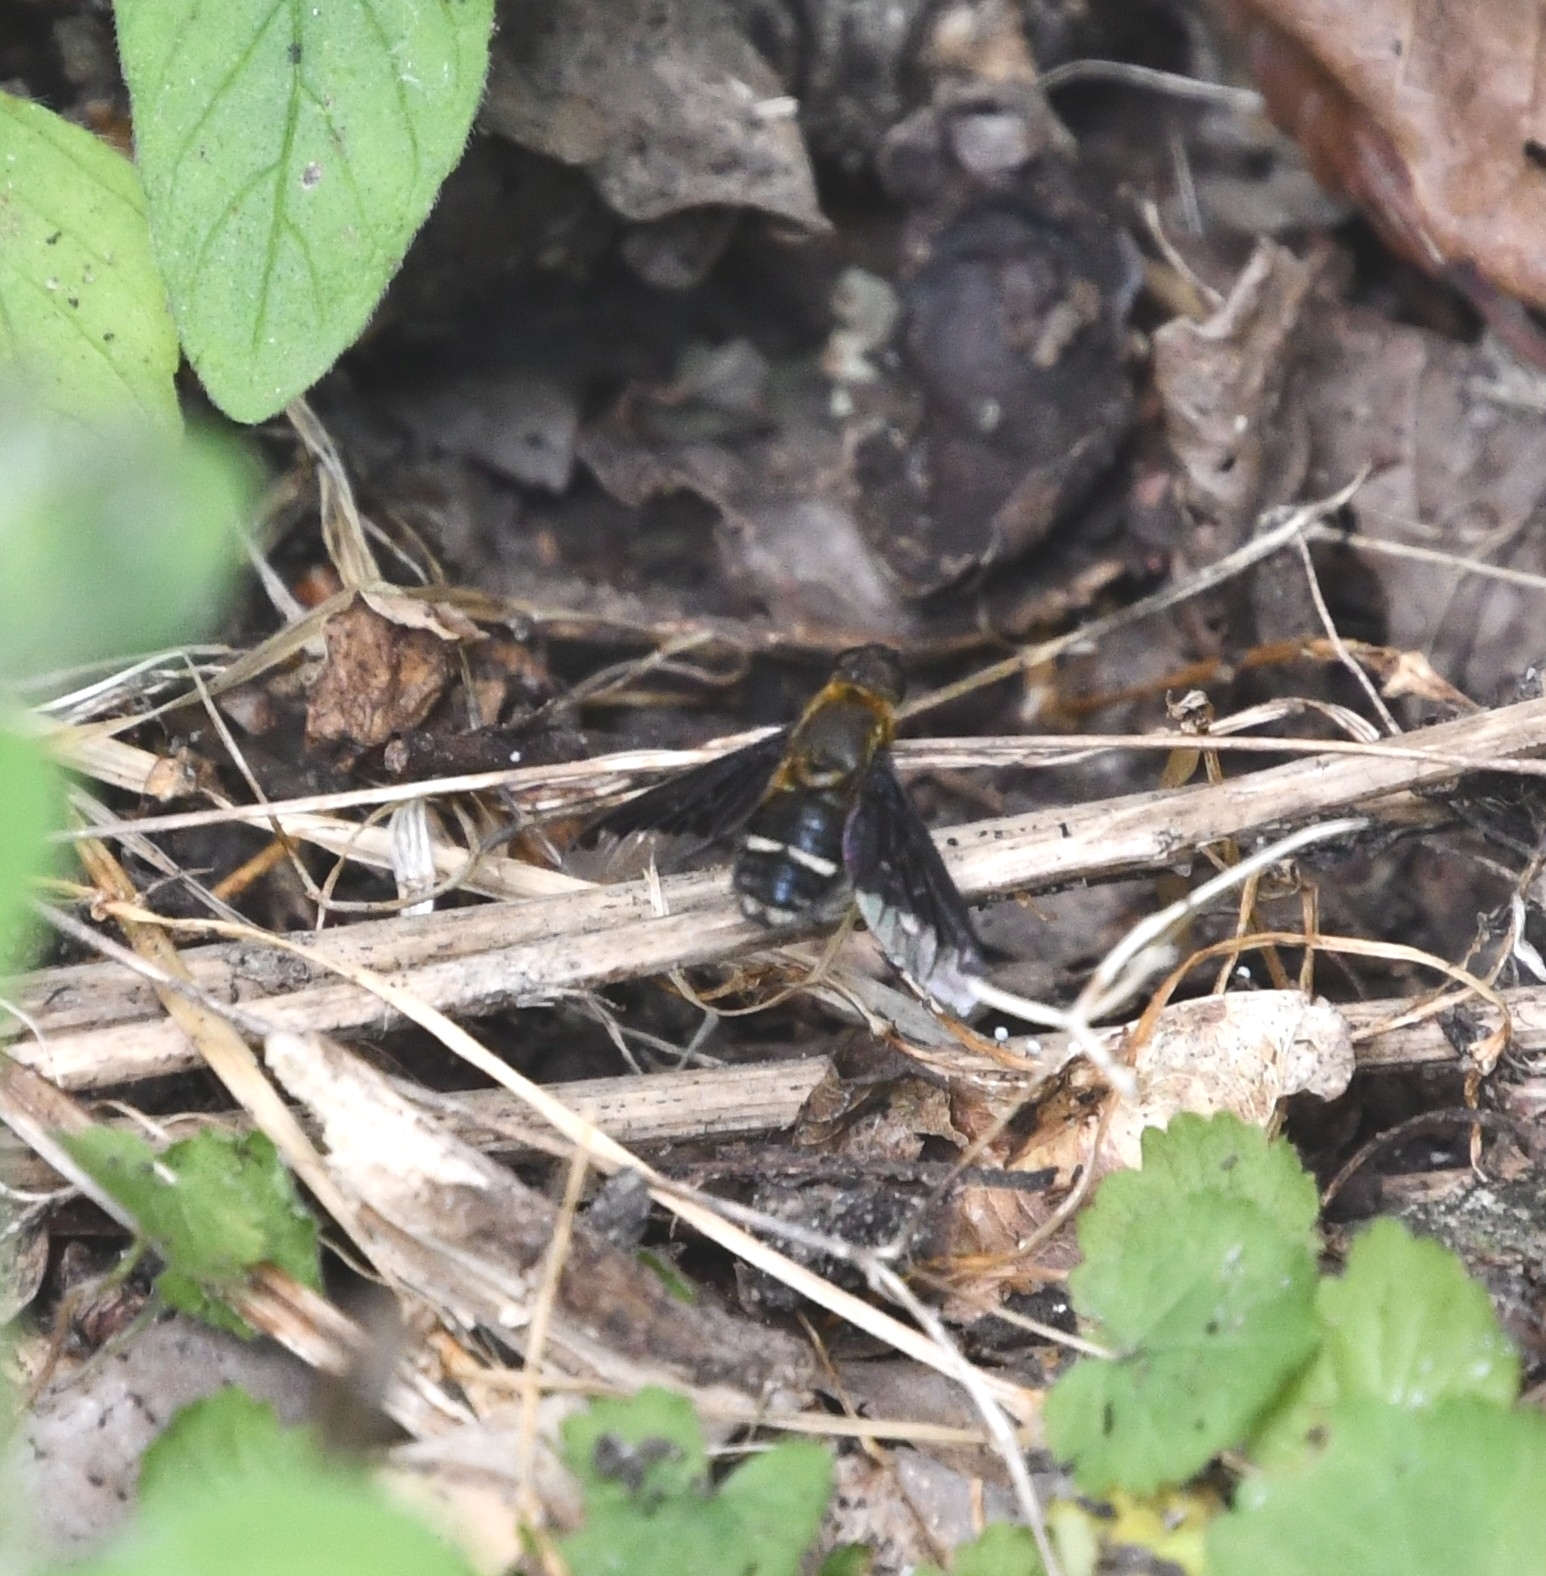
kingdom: Animalia
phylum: Arthropoda
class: Insecta
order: Diptera
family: Bombyliidae
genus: Hemipenthes
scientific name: Hemipenthes velutina
